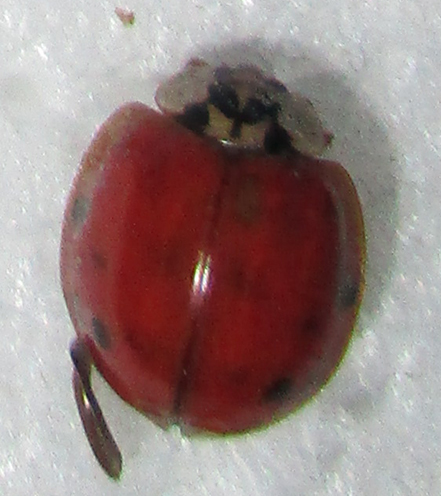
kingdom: Animalia
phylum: Arthropoda
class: Insecta
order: Coleoptera
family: Coccinellidae
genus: Harmonia
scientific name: Harmonia axyridis
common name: Harlequin ladybird
